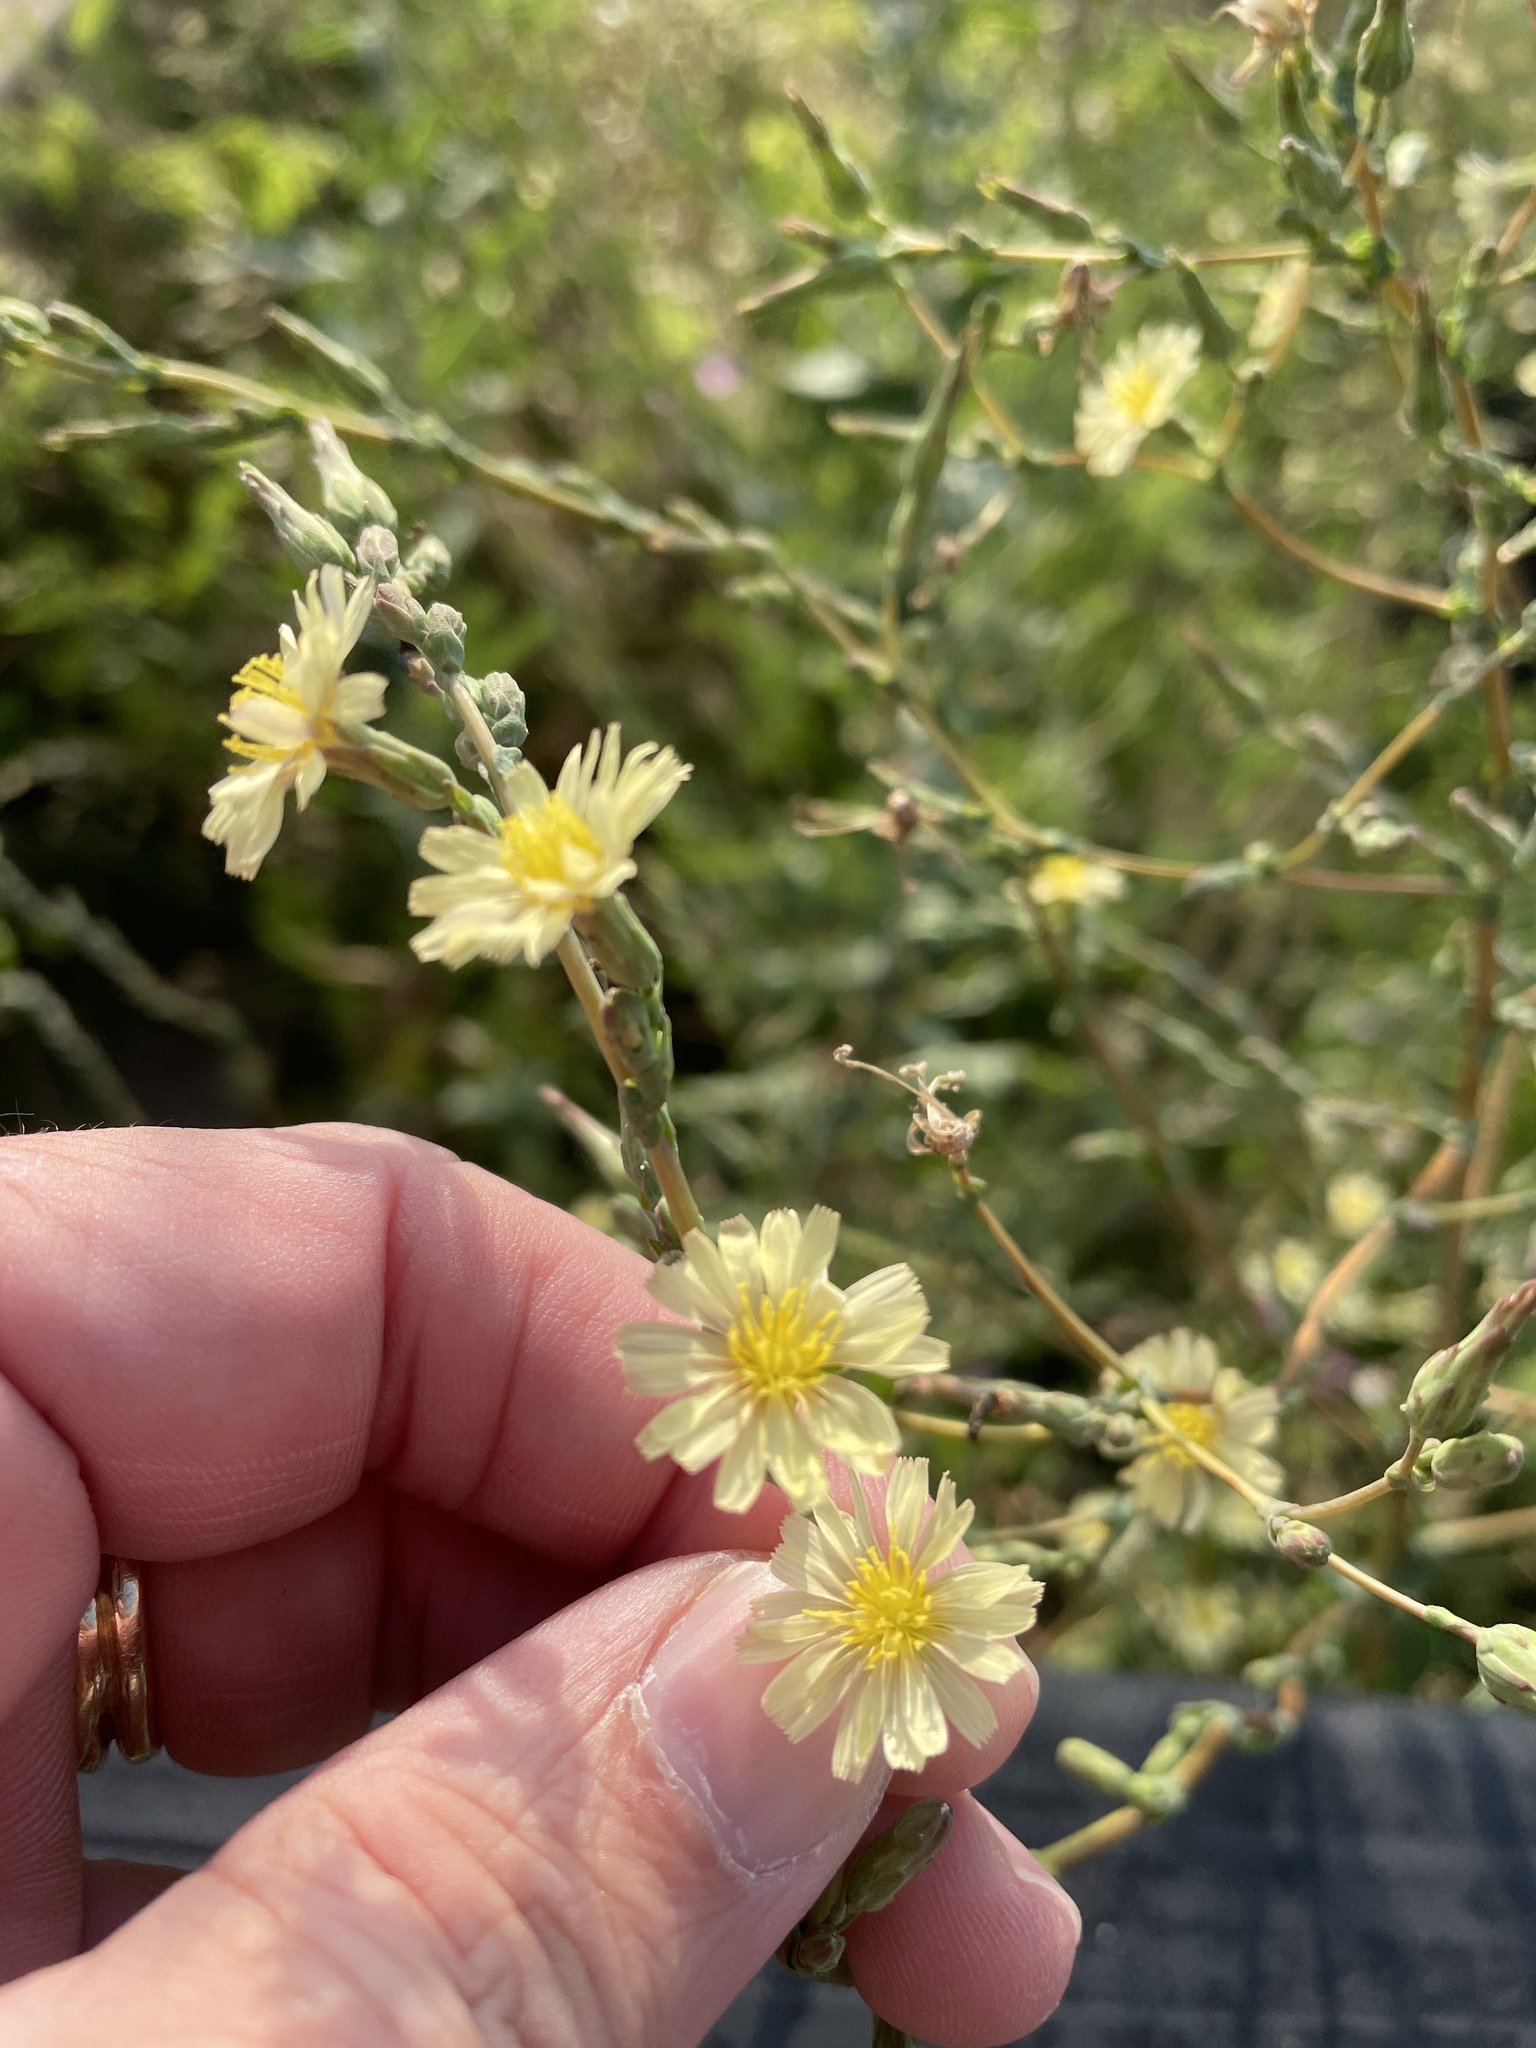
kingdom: Plantae
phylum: Tracheophyta
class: Magnoliopsida
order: Asterales
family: Asteraceae
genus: Lactuca
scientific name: Lactuca serriola
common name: Prickly lettuce
